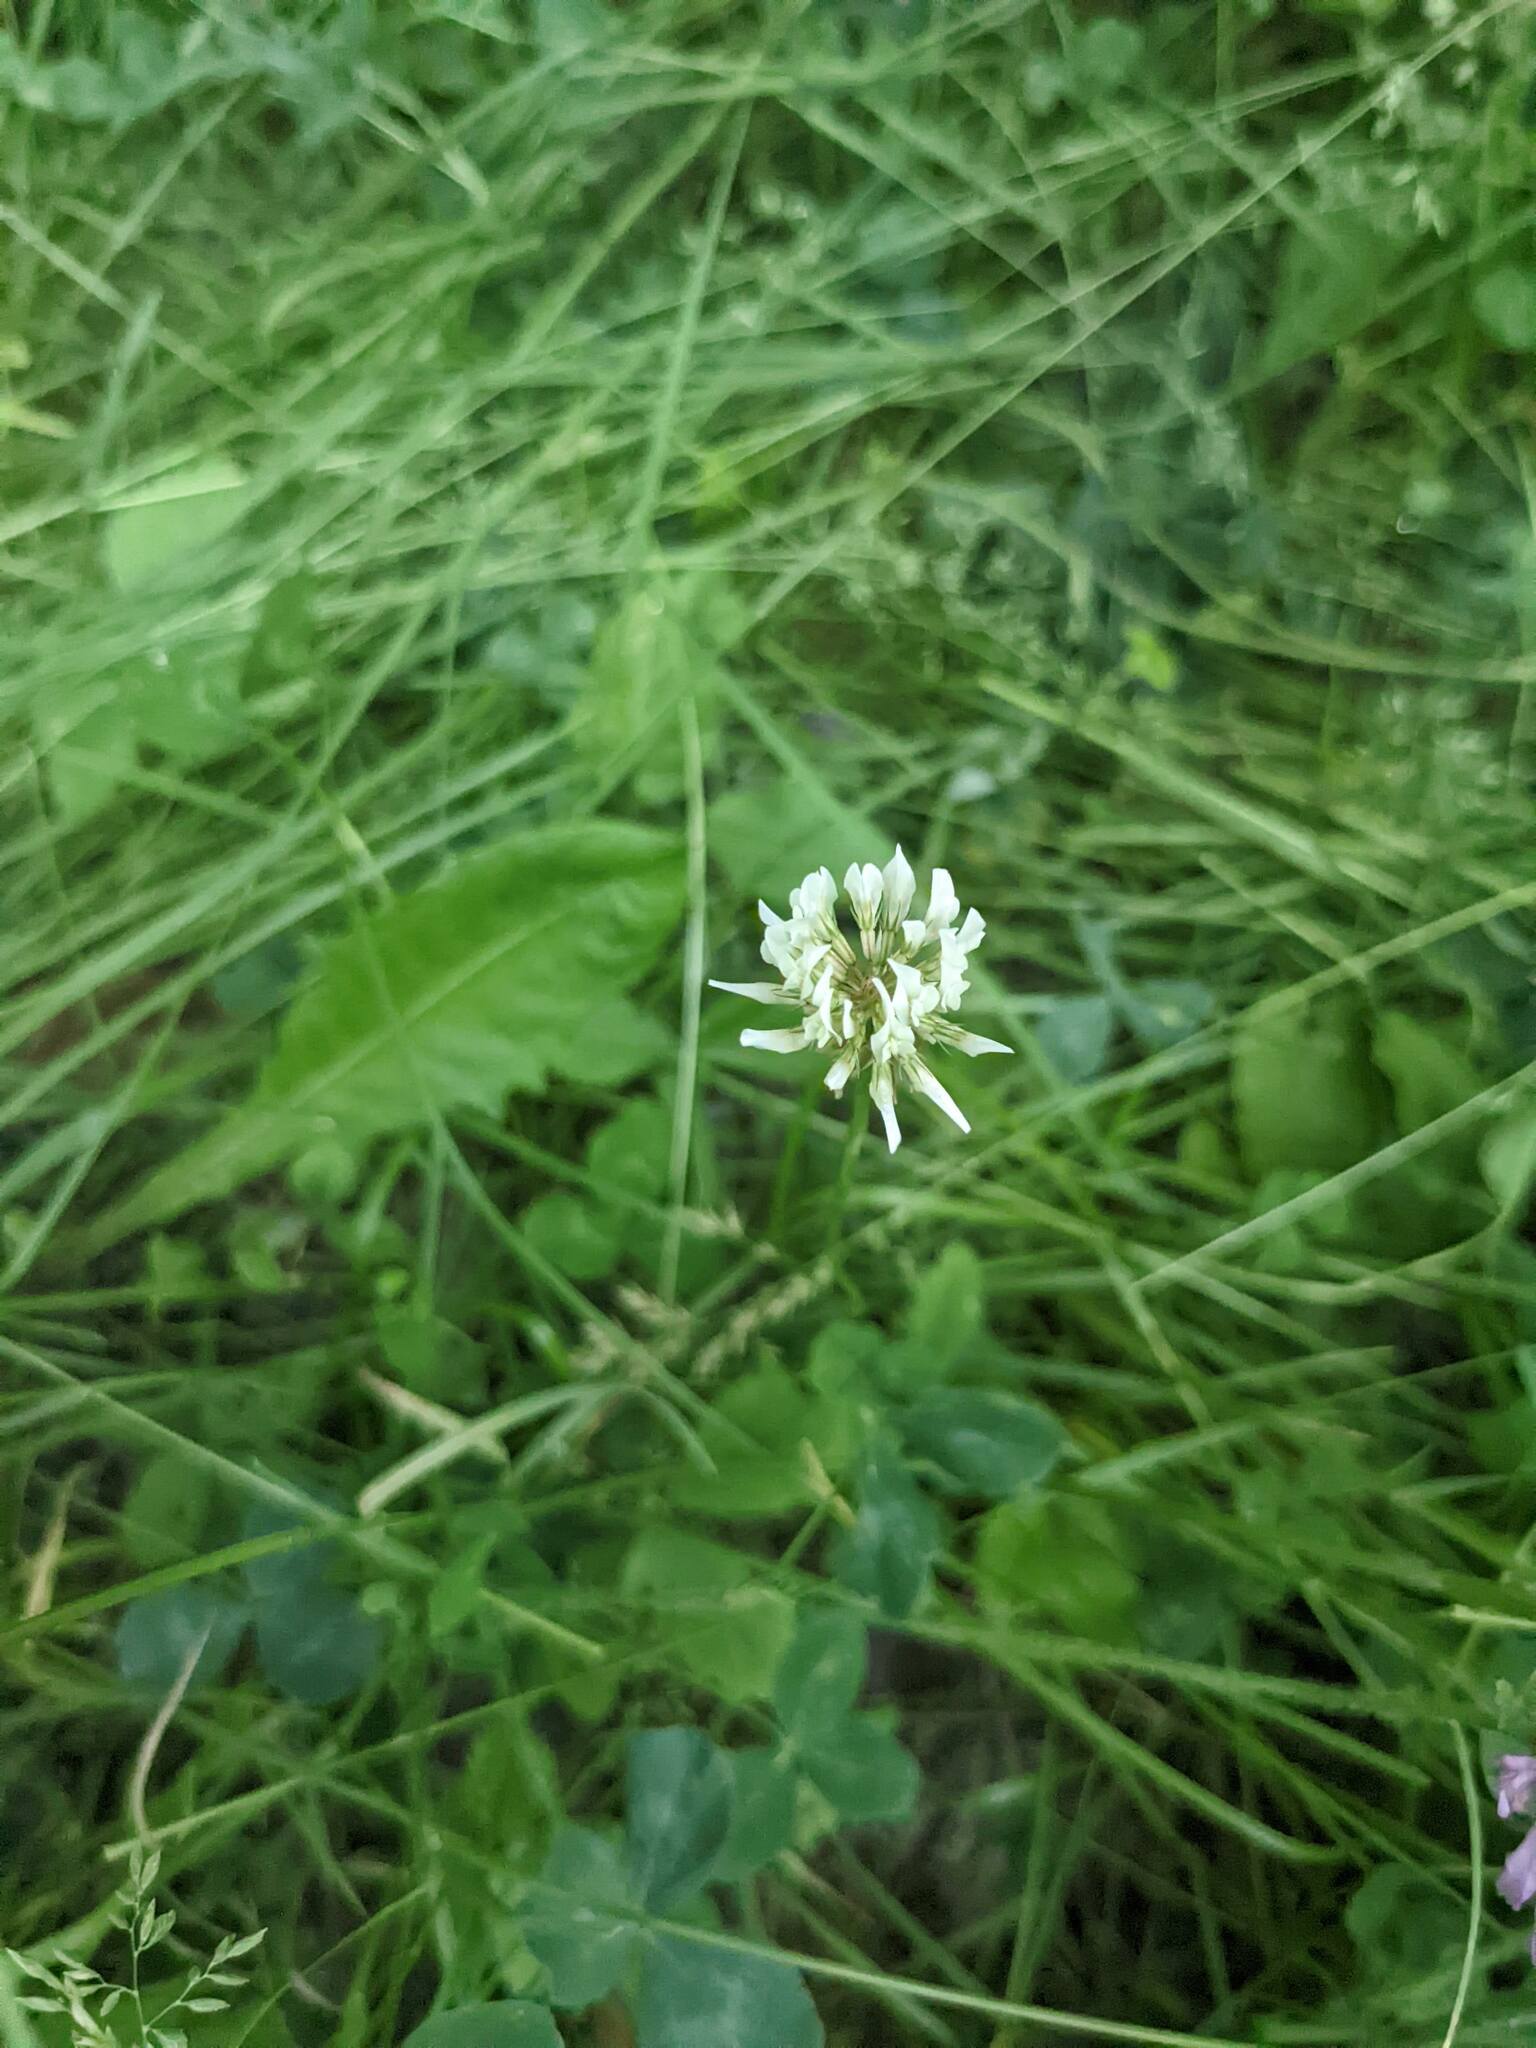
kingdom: Plantae
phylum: Tracheophyta
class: Magnoliopsida
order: Fabales
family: Fabaceae
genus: Trifolium
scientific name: Trifolium repens
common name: White clover
